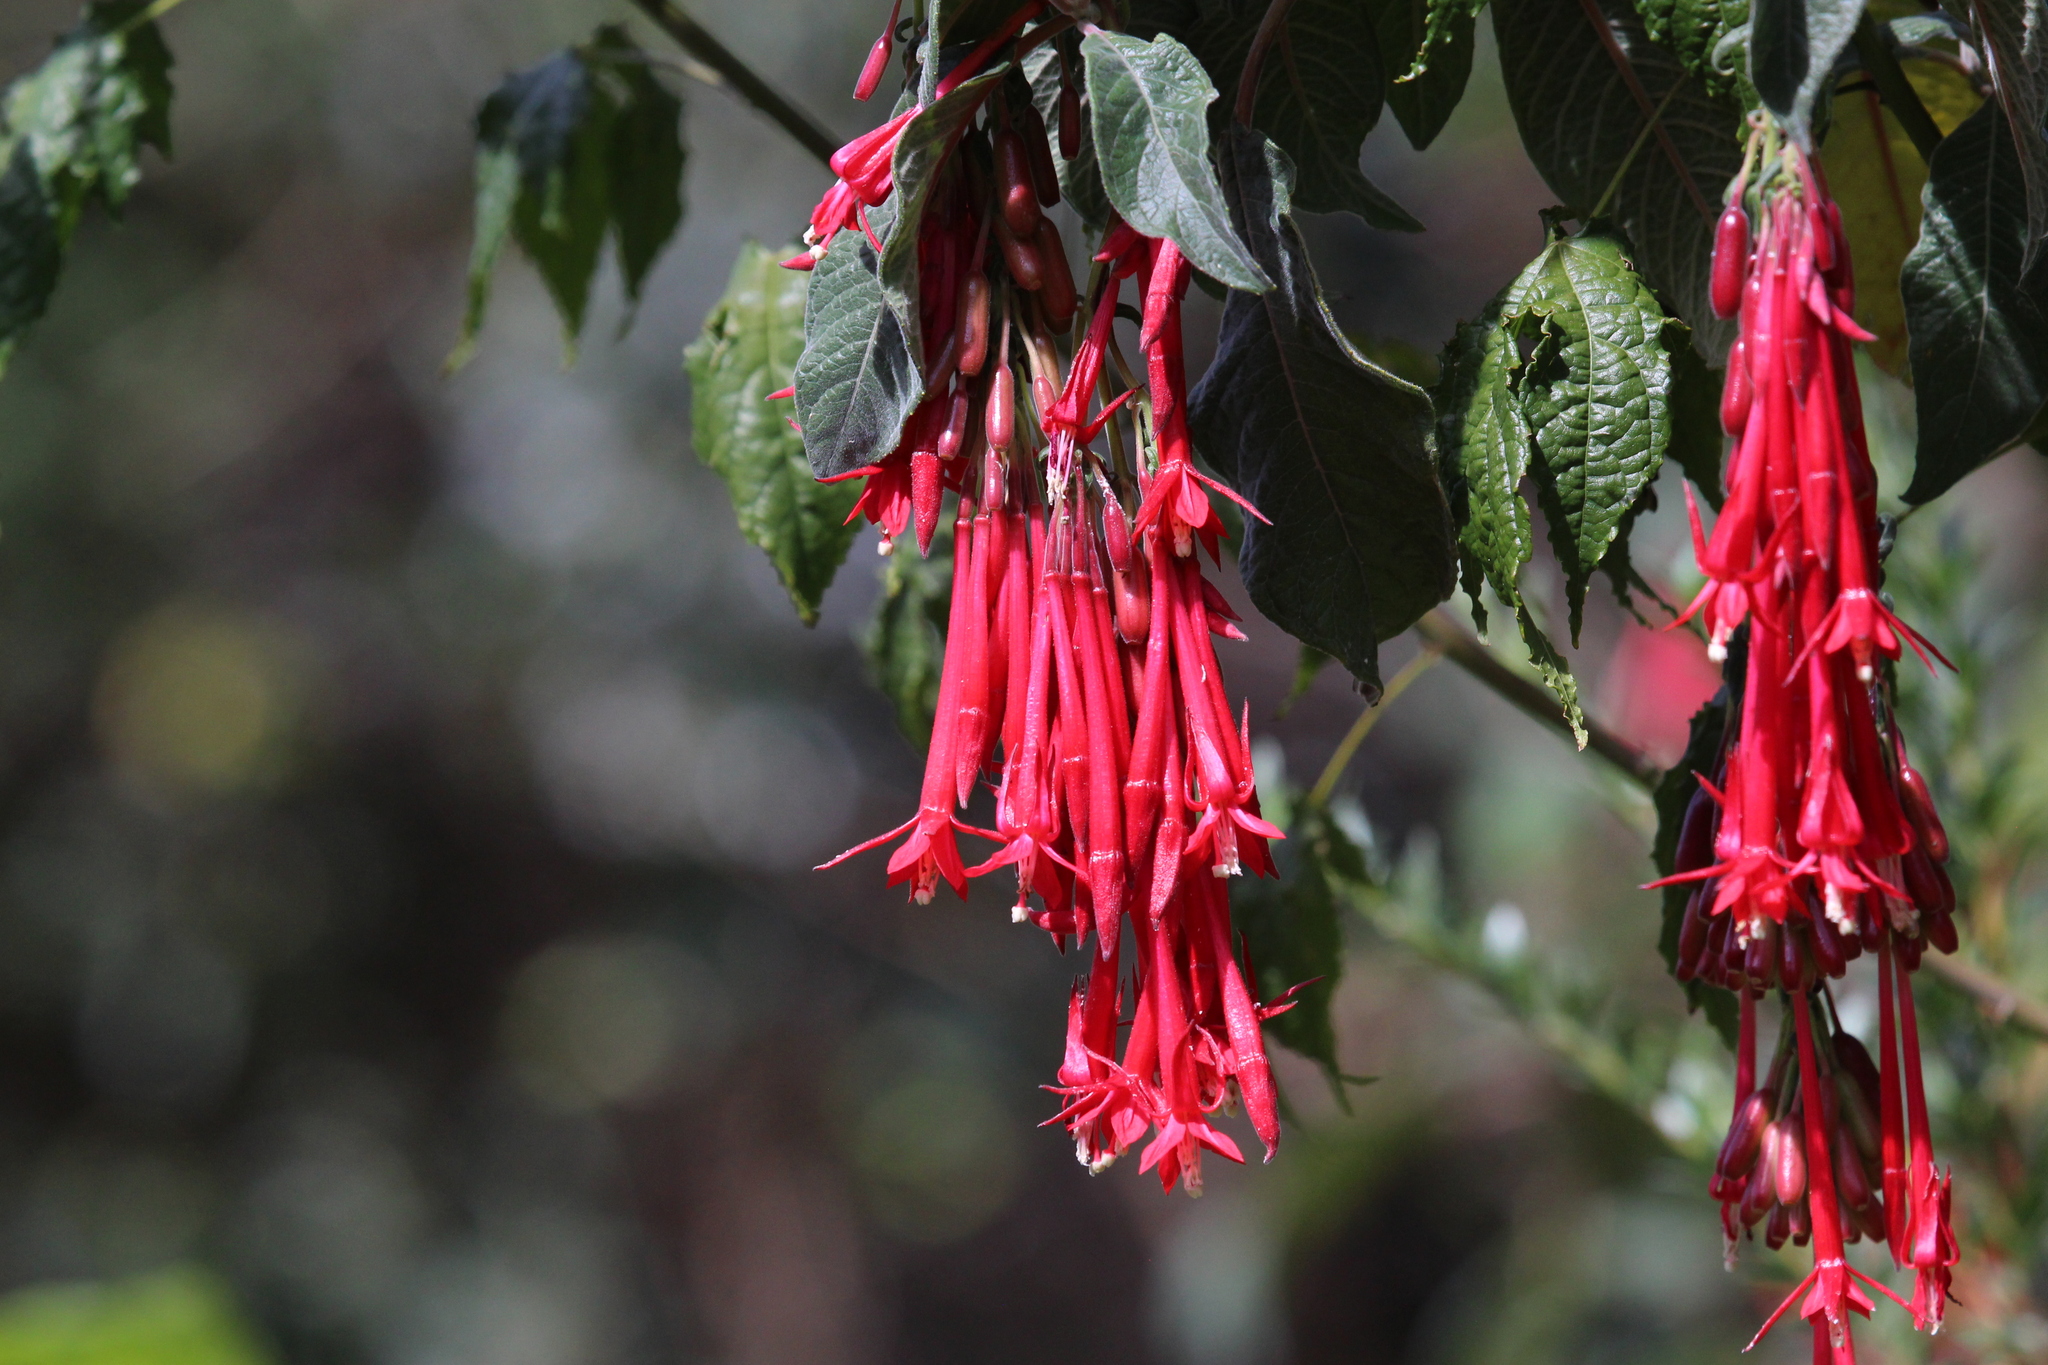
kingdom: Plantae
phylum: Tracheophyta
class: Magnoliopsida
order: Myrtales
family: Onagraceae
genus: Fuchsia
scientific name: Fuchsia boliviana
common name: Bolivian fuchsia
